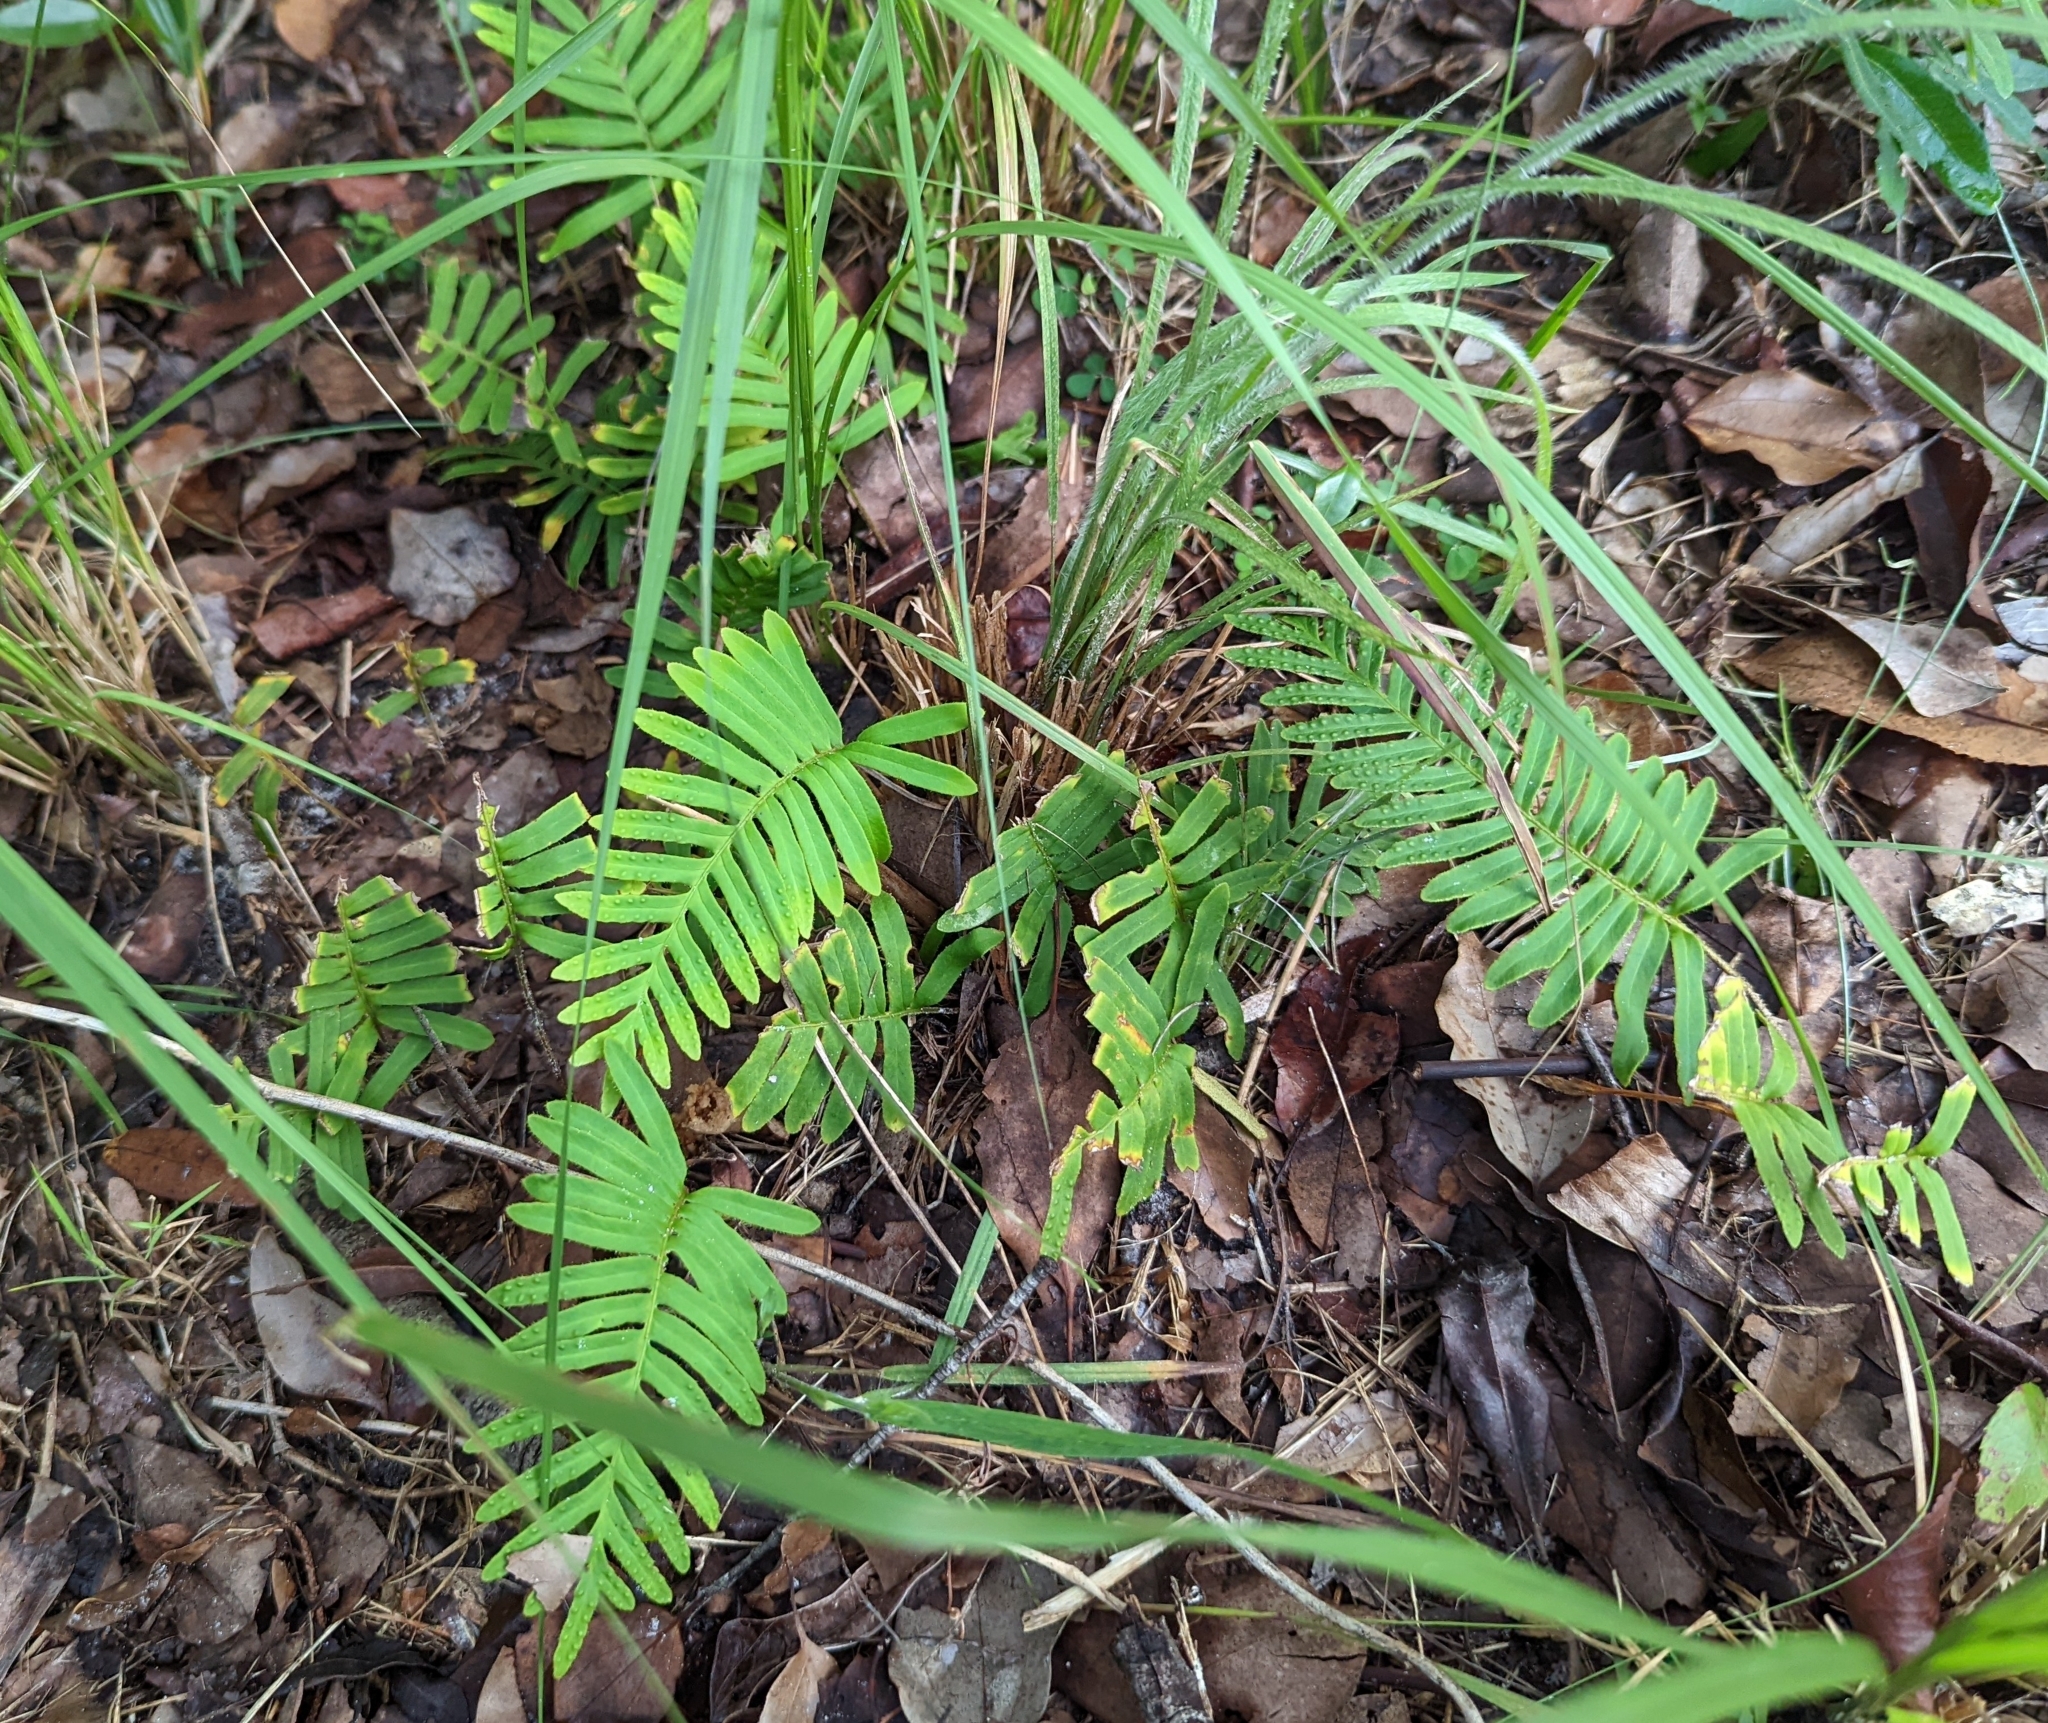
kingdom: Plantae
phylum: Tracheophyta
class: Polypodiopsida
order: Polypodiales
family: Polypodiaceae
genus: Pleopeltis
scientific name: Pleopeltis michauxiana
